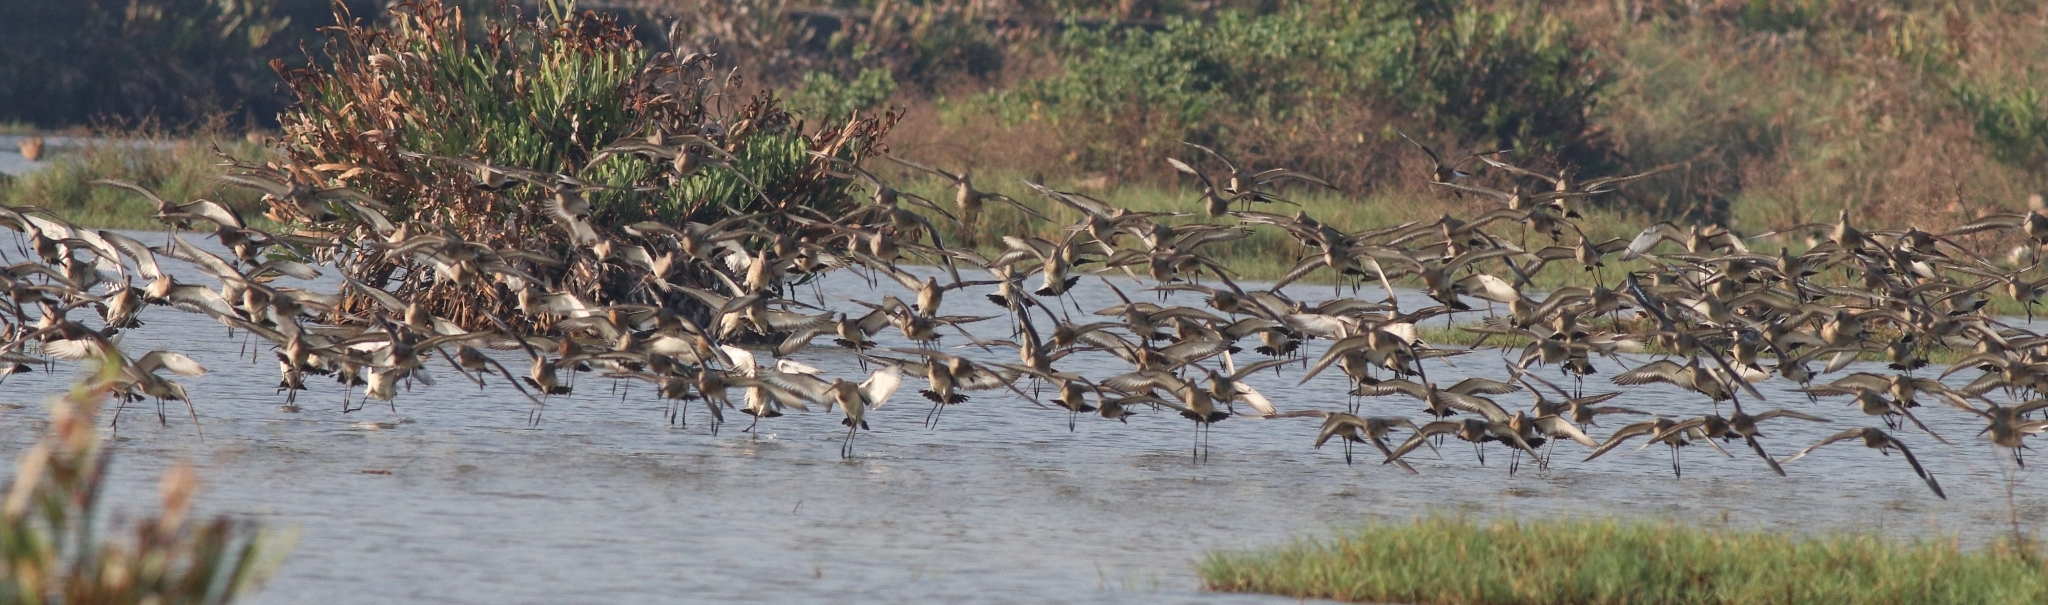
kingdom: Animalia
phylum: Chordata
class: Aves
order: Charadriiformes
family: Scolopacidae
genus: Limosa
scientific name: Limosa limosa
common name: Black-tailed godwit
